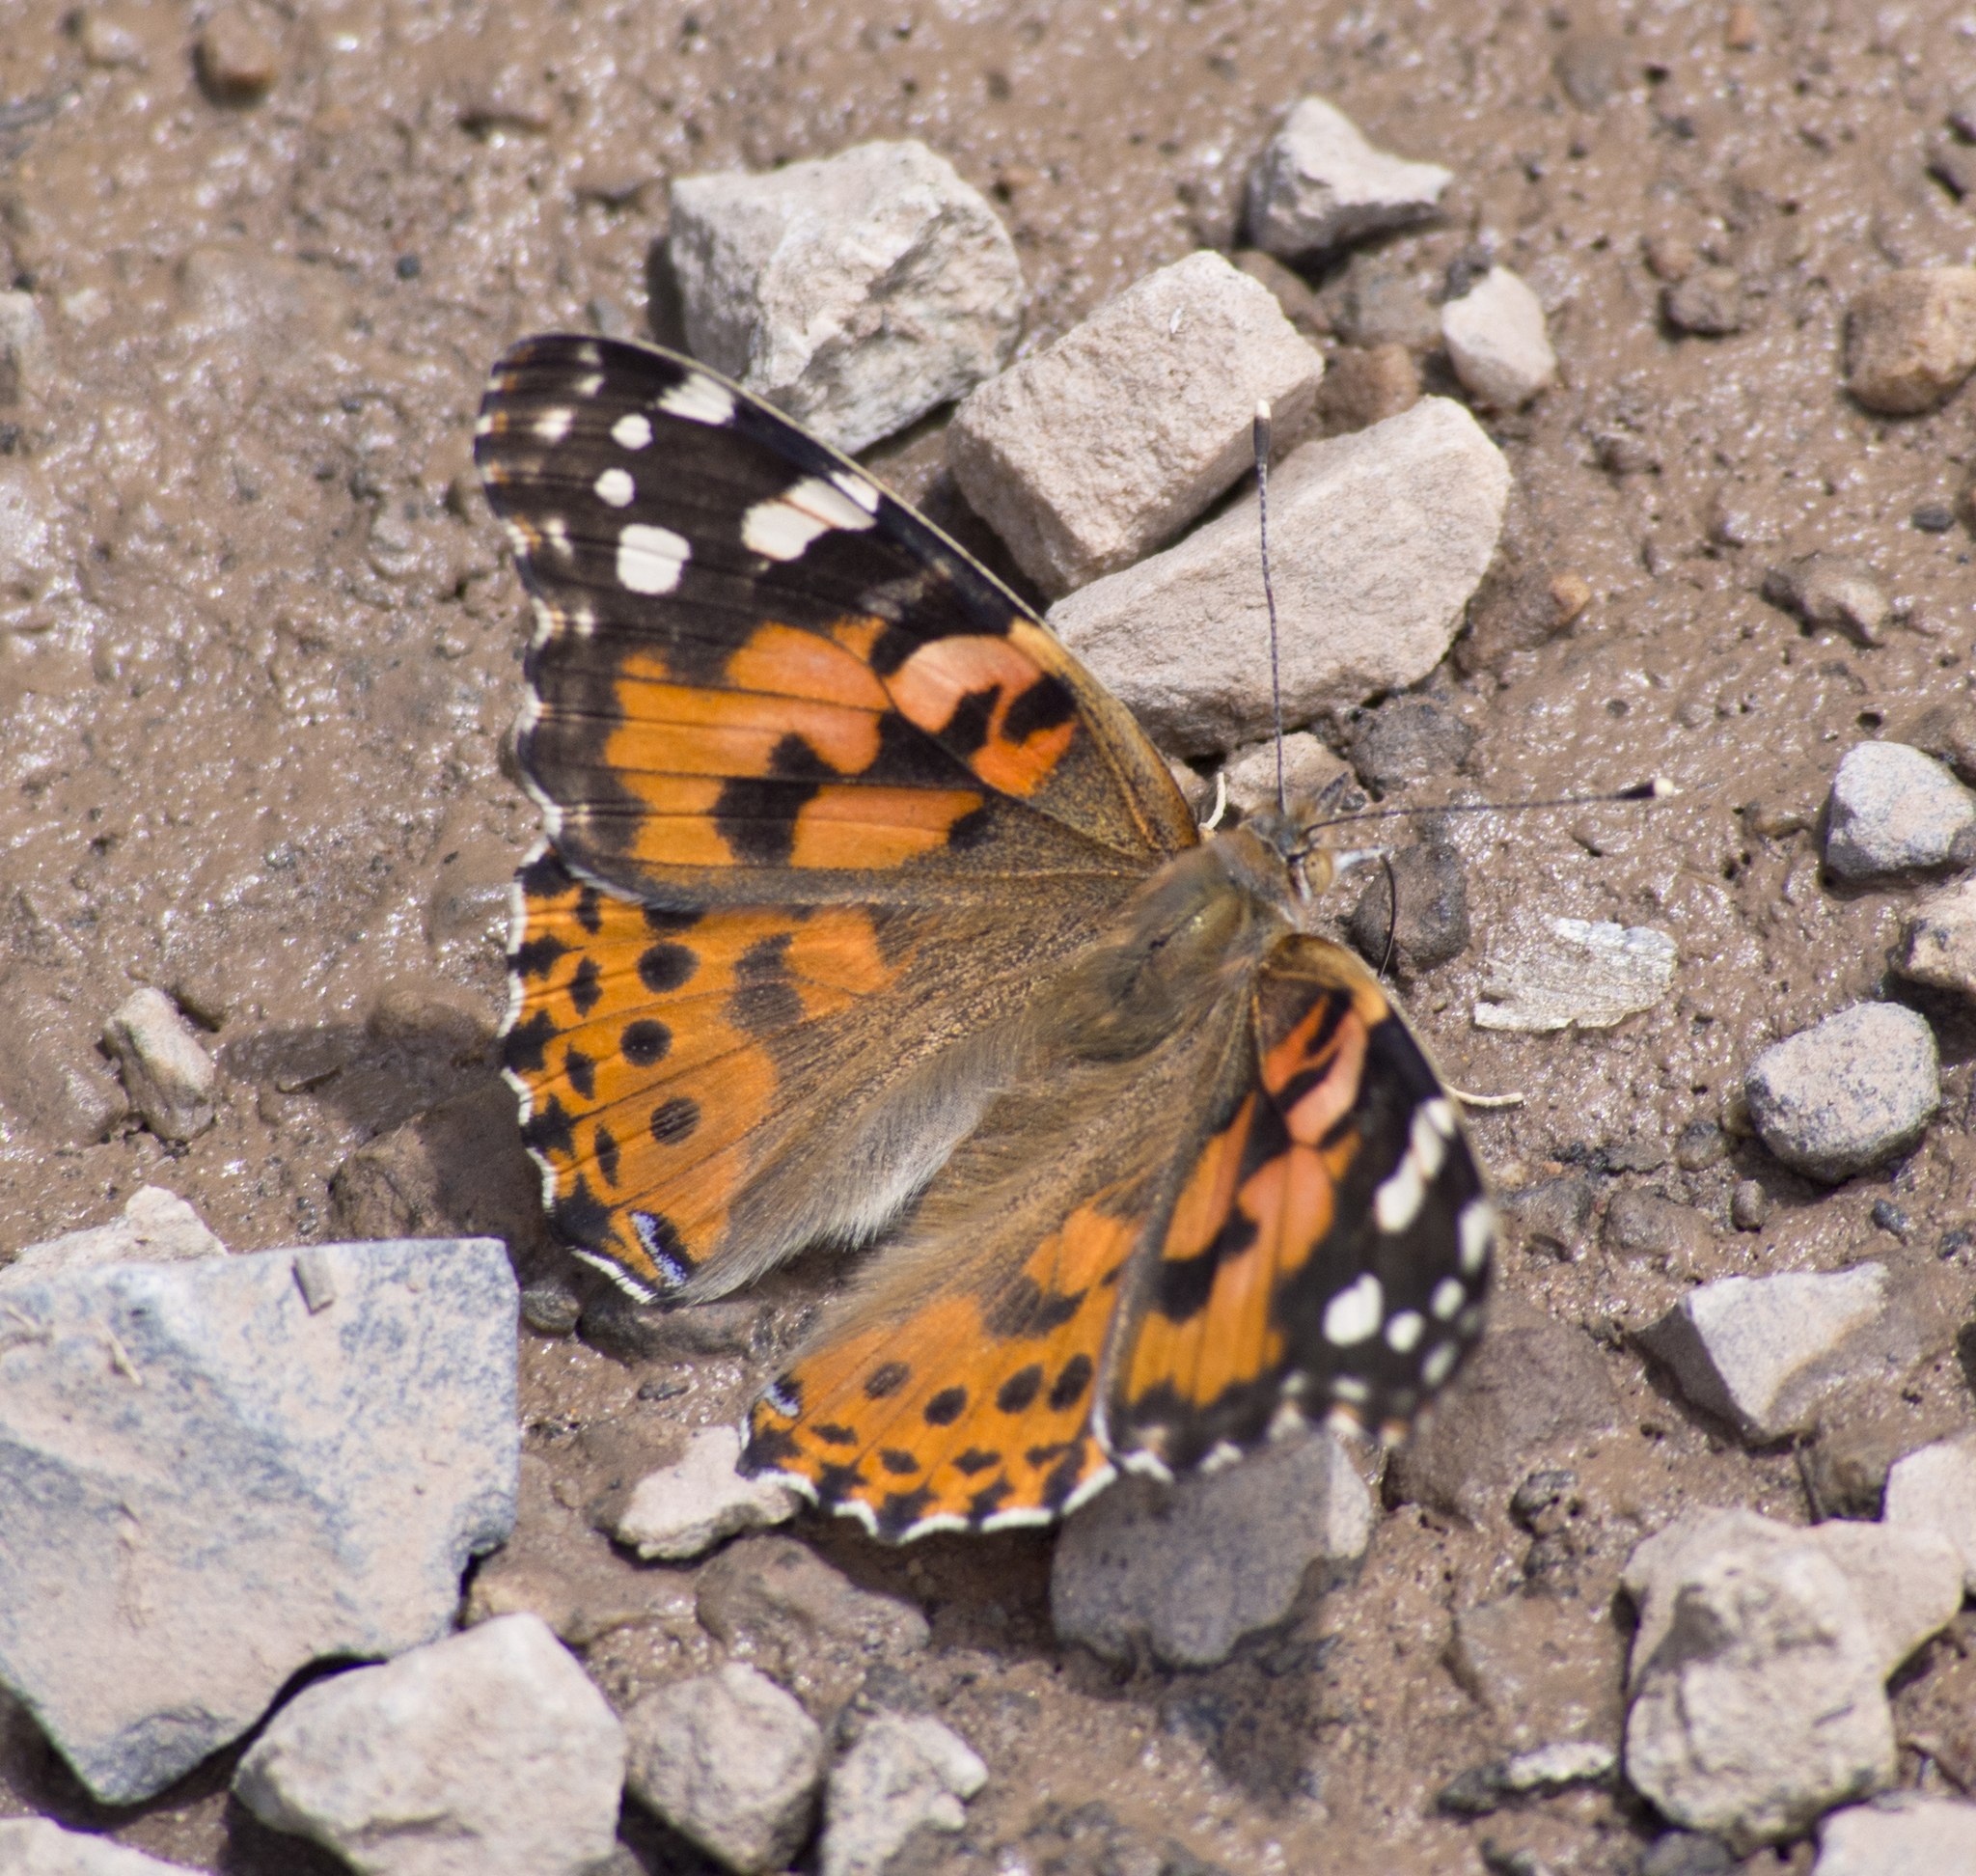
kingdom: Animalia
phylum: Arthropoda
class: Insecta
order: Lepidoptera
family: Nymphalidae
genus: Vanessa
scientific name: Vanessa cardui
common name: Painted lady
